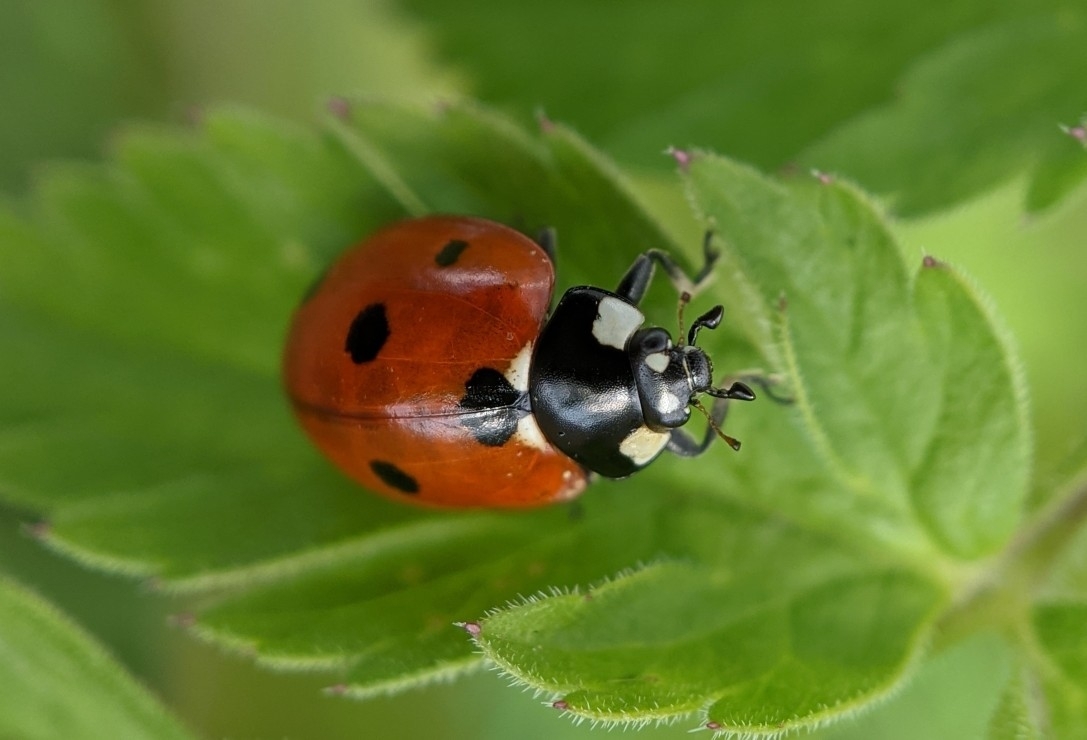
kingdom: Animalia
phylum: Arthropoda
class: Insecta
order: Coleoptera
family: Coccinellidae
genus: Coccinella
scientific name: Coccinella septempunctata
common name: Sevenspotted lady beetle
